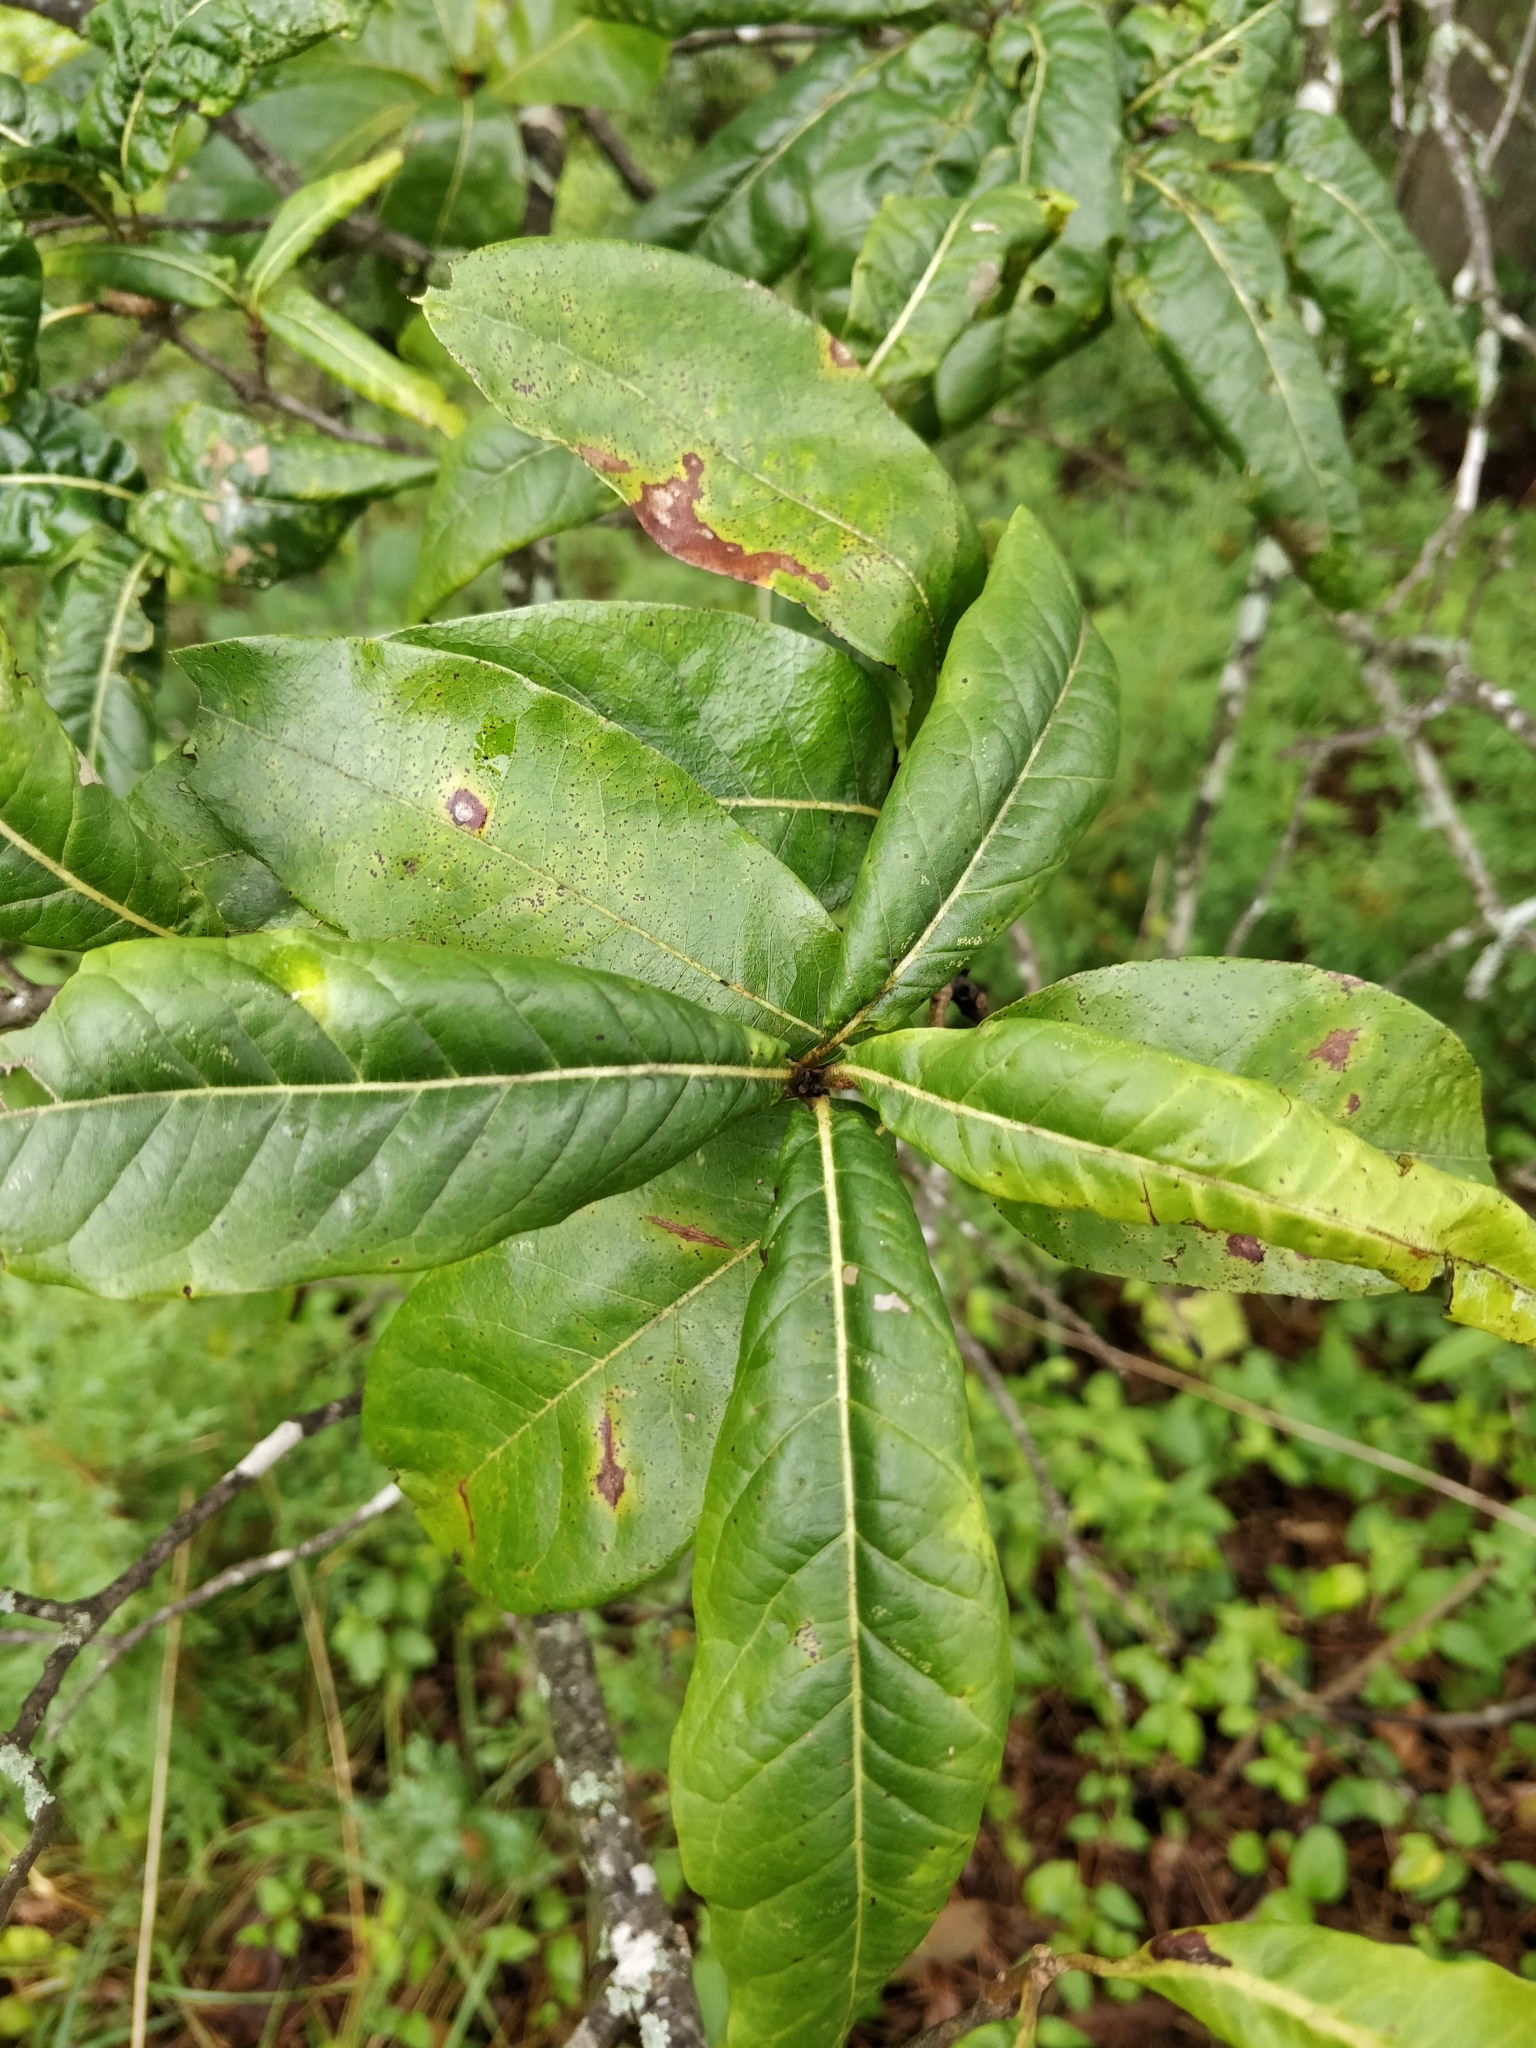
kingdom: Plantae
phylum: Tracheophyta
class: Magnoliopsida
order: Fagales
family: Fagaceae
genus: Quercus
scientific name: Quercus imbricaria
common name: Shingle oak
